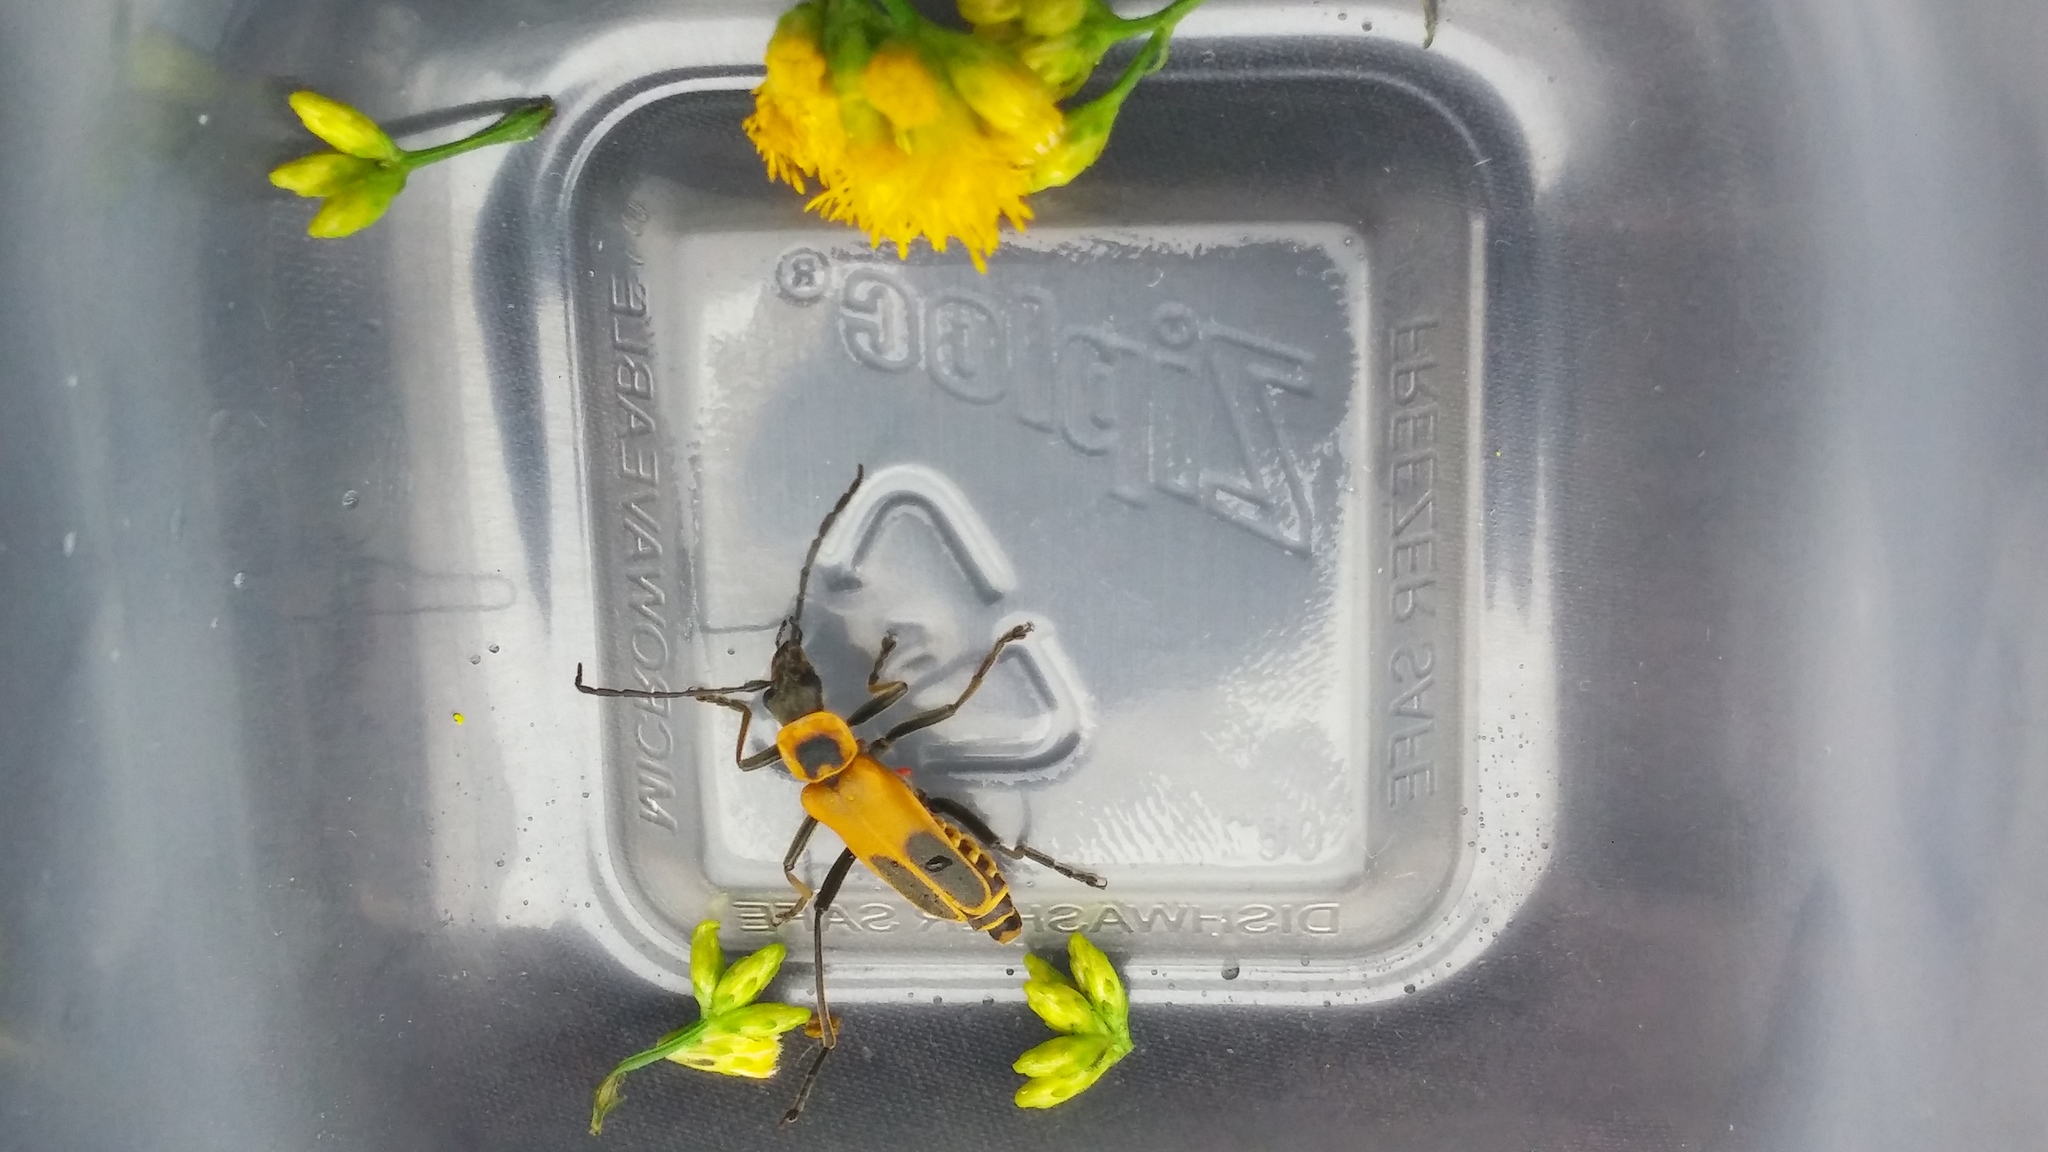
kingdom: Animalia
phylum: Arthropoda
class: Insecta
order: Coleoptera
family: Cantharidae
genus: Chauliognathus
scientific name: Chauliognathus pensylvanicus
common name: Goldenrod soldier beetle
